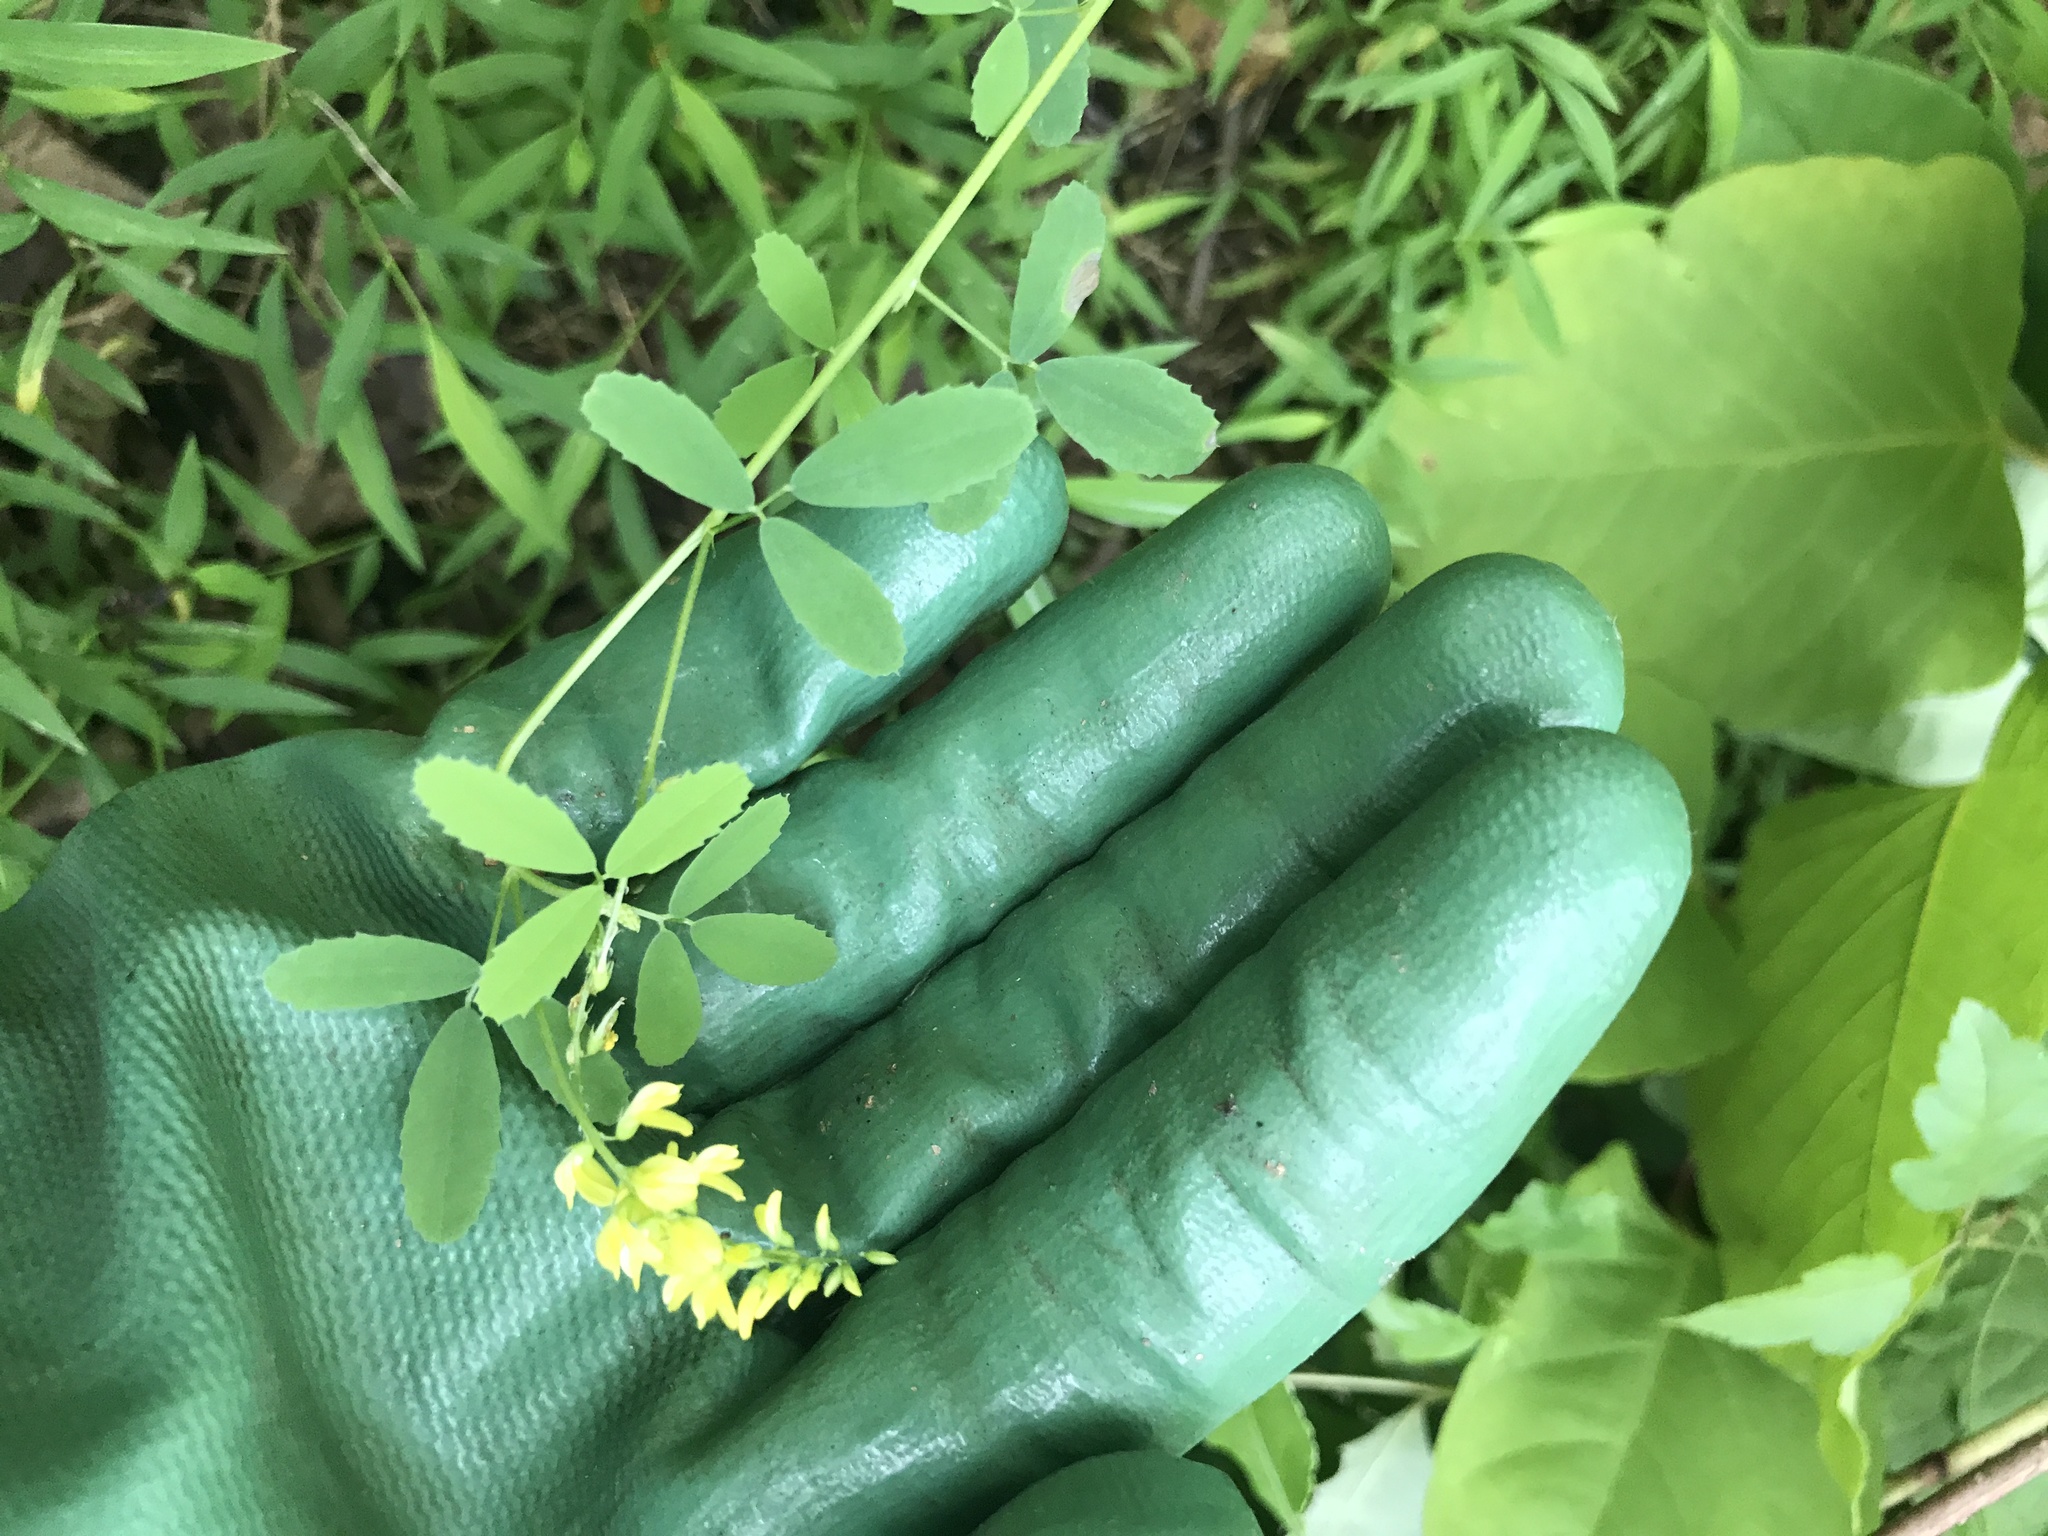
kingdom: Plantae
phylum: Tracheophyta
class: Magnoliopsida
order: Fabales
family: Fabaceae
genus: Melilotus
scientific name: Melilotus officinalis
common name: Sweetclover
